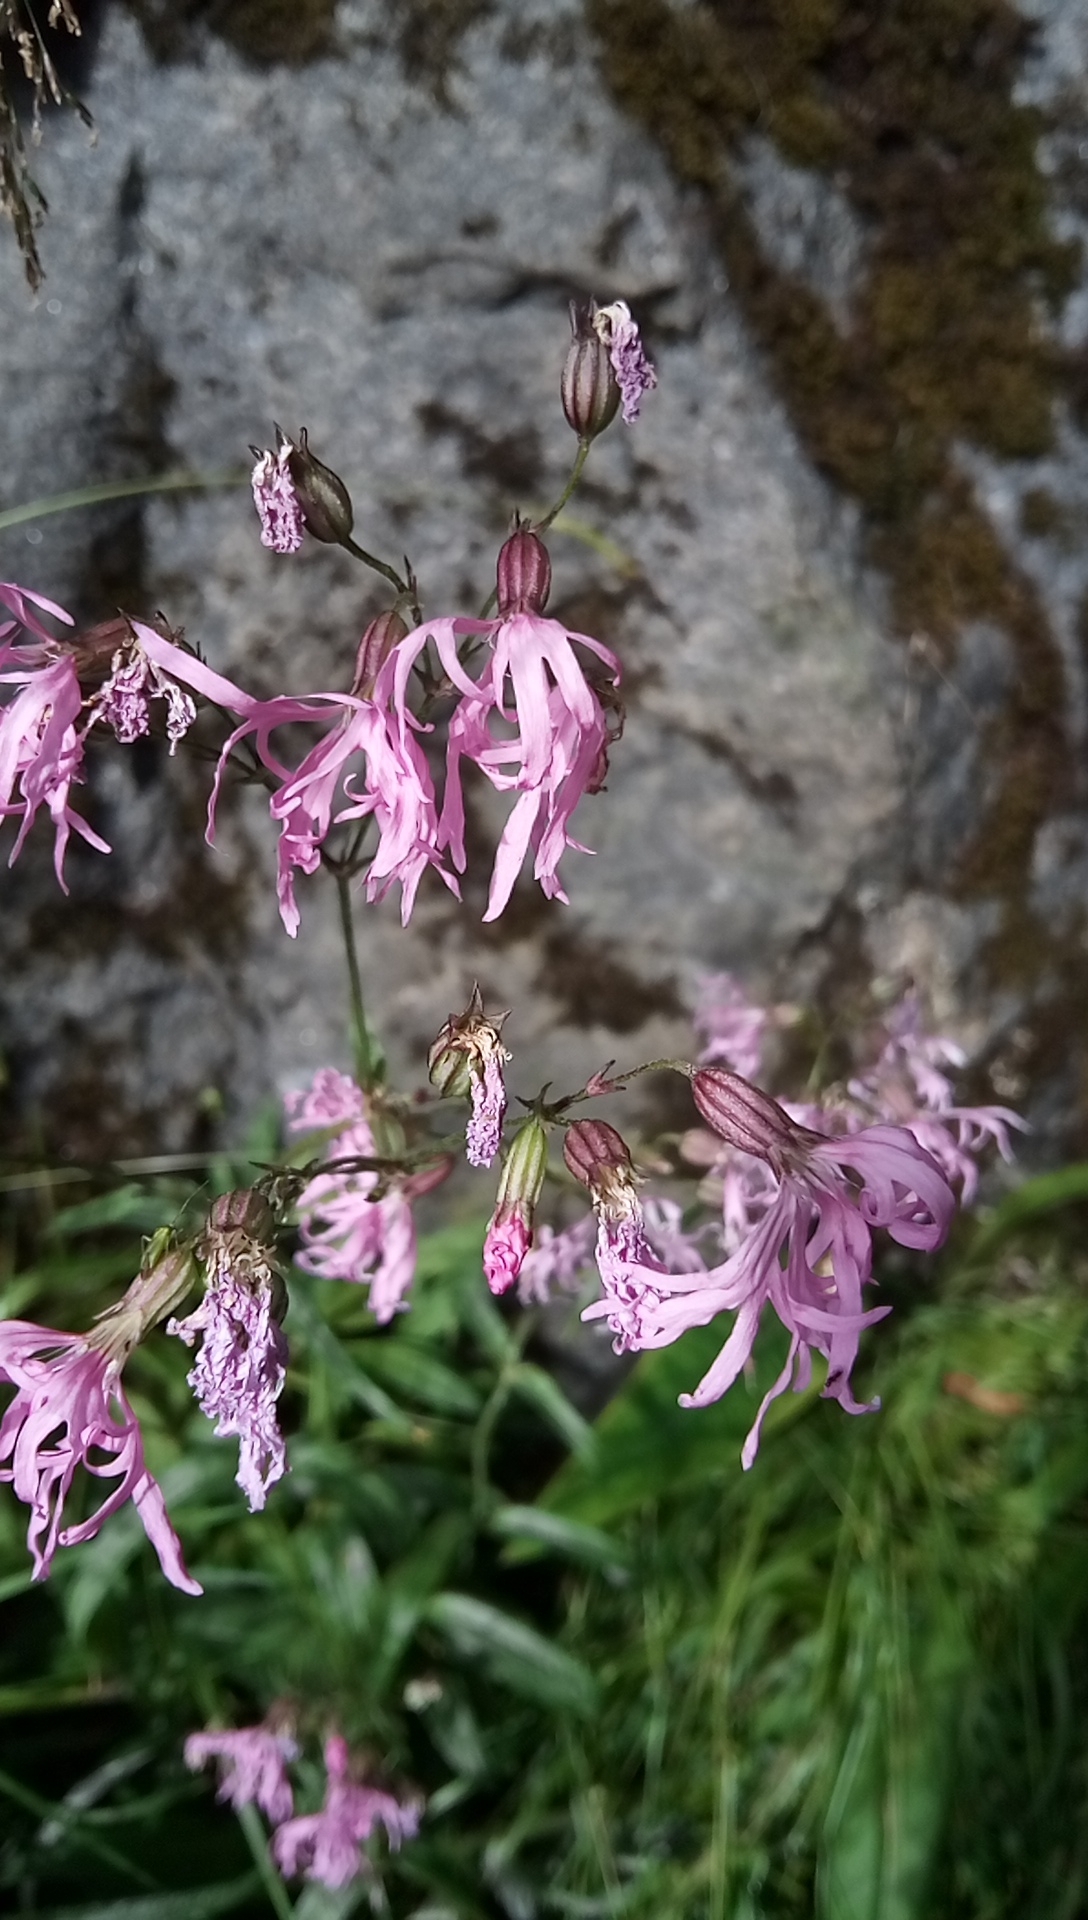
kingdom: Plantae
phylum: Tracheophyta
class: Magnoliopsida
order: Caryophyllales
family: Caryophyllaceae
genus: Silene
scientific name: Silene flos-cuculi
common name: Ragged-robin
